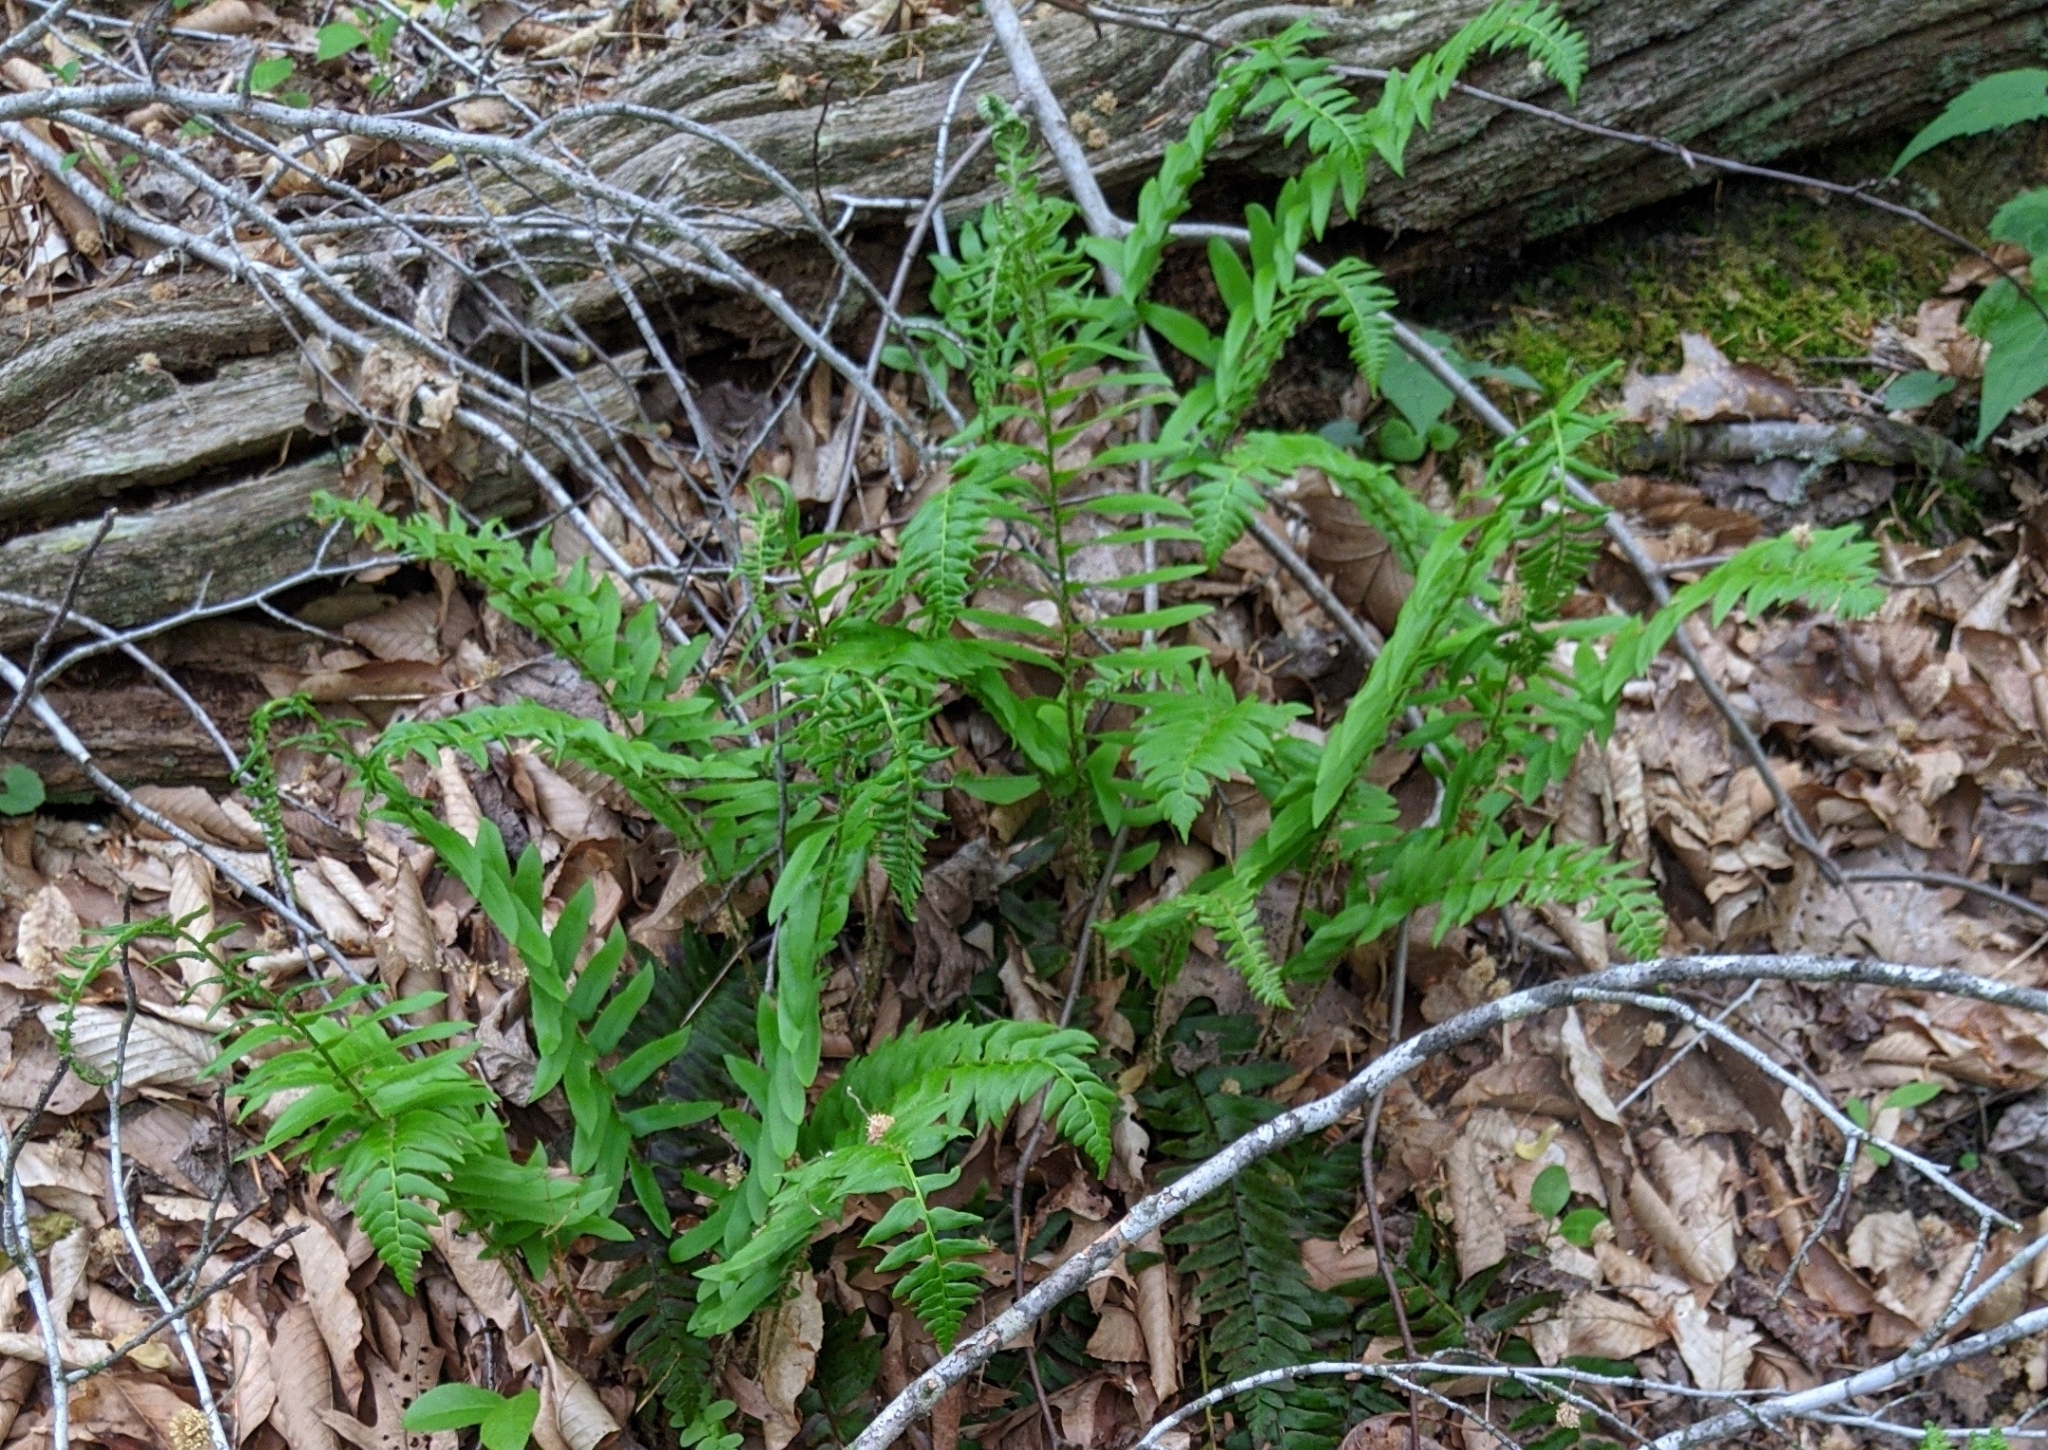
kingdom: Plantae
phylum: Tracheophyta
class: Polypodiopsida
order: Polypodiales
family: Dryopteridaceae
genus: Polystichum
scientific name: Polystichum acrostichoides
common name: Christmas fern
